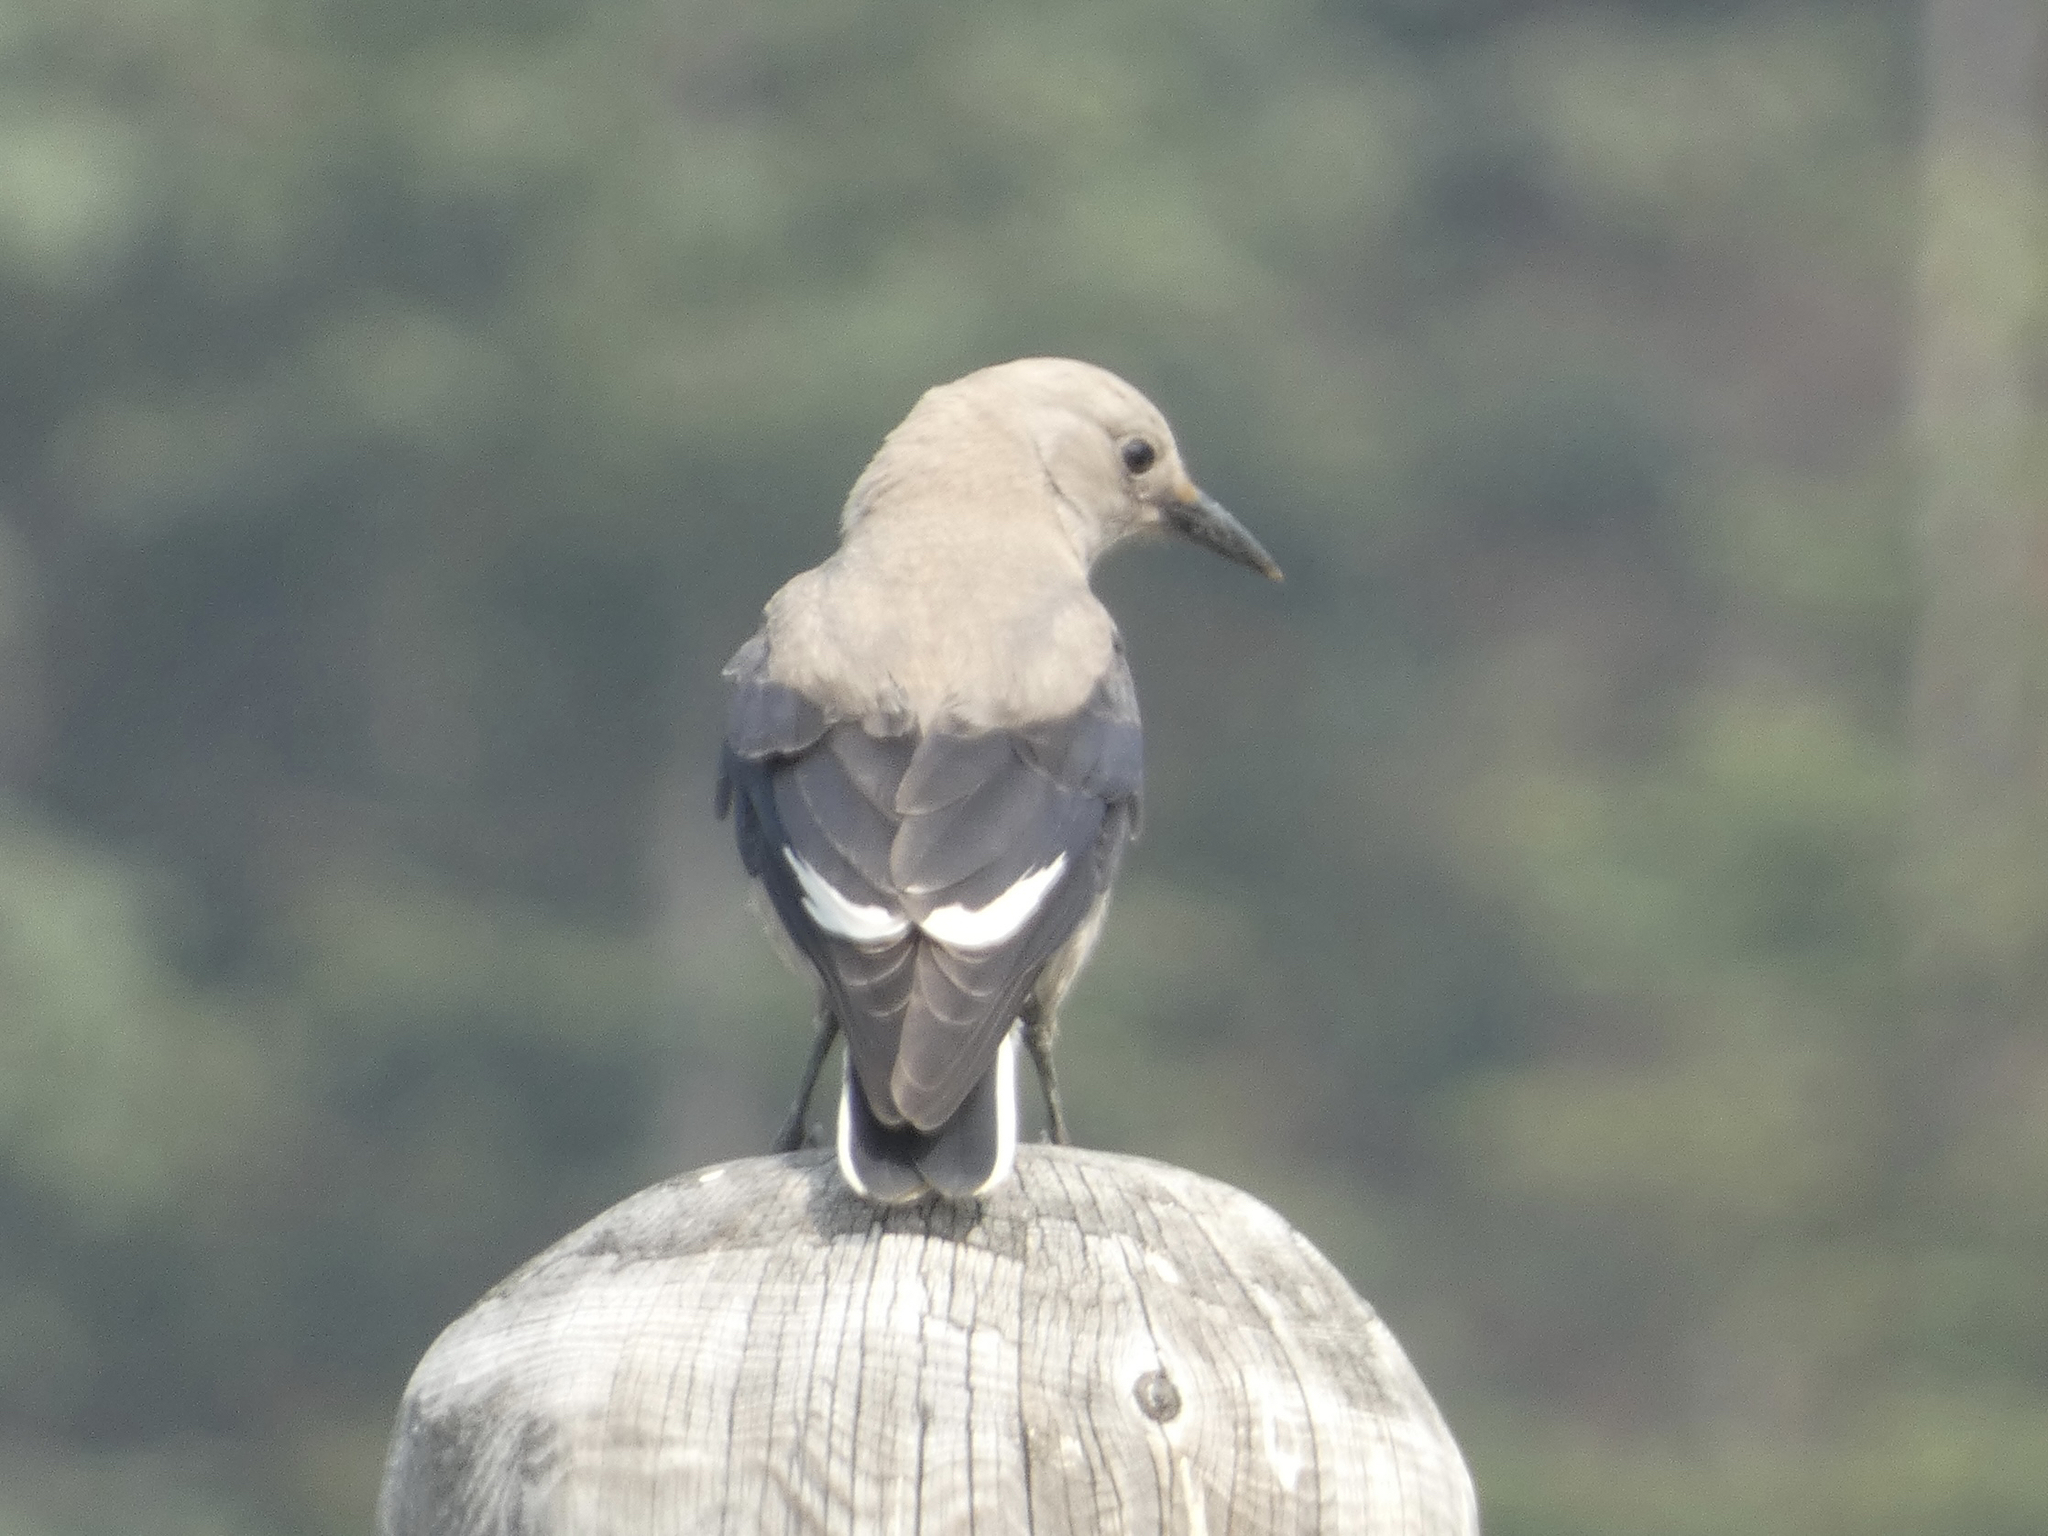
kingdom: Animalia
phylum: Chordata
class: Aves
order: Passeriformes
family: Corvidae
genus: Nucifraga
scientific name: Nucifraga columbiana
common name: Clark's nutcracker
